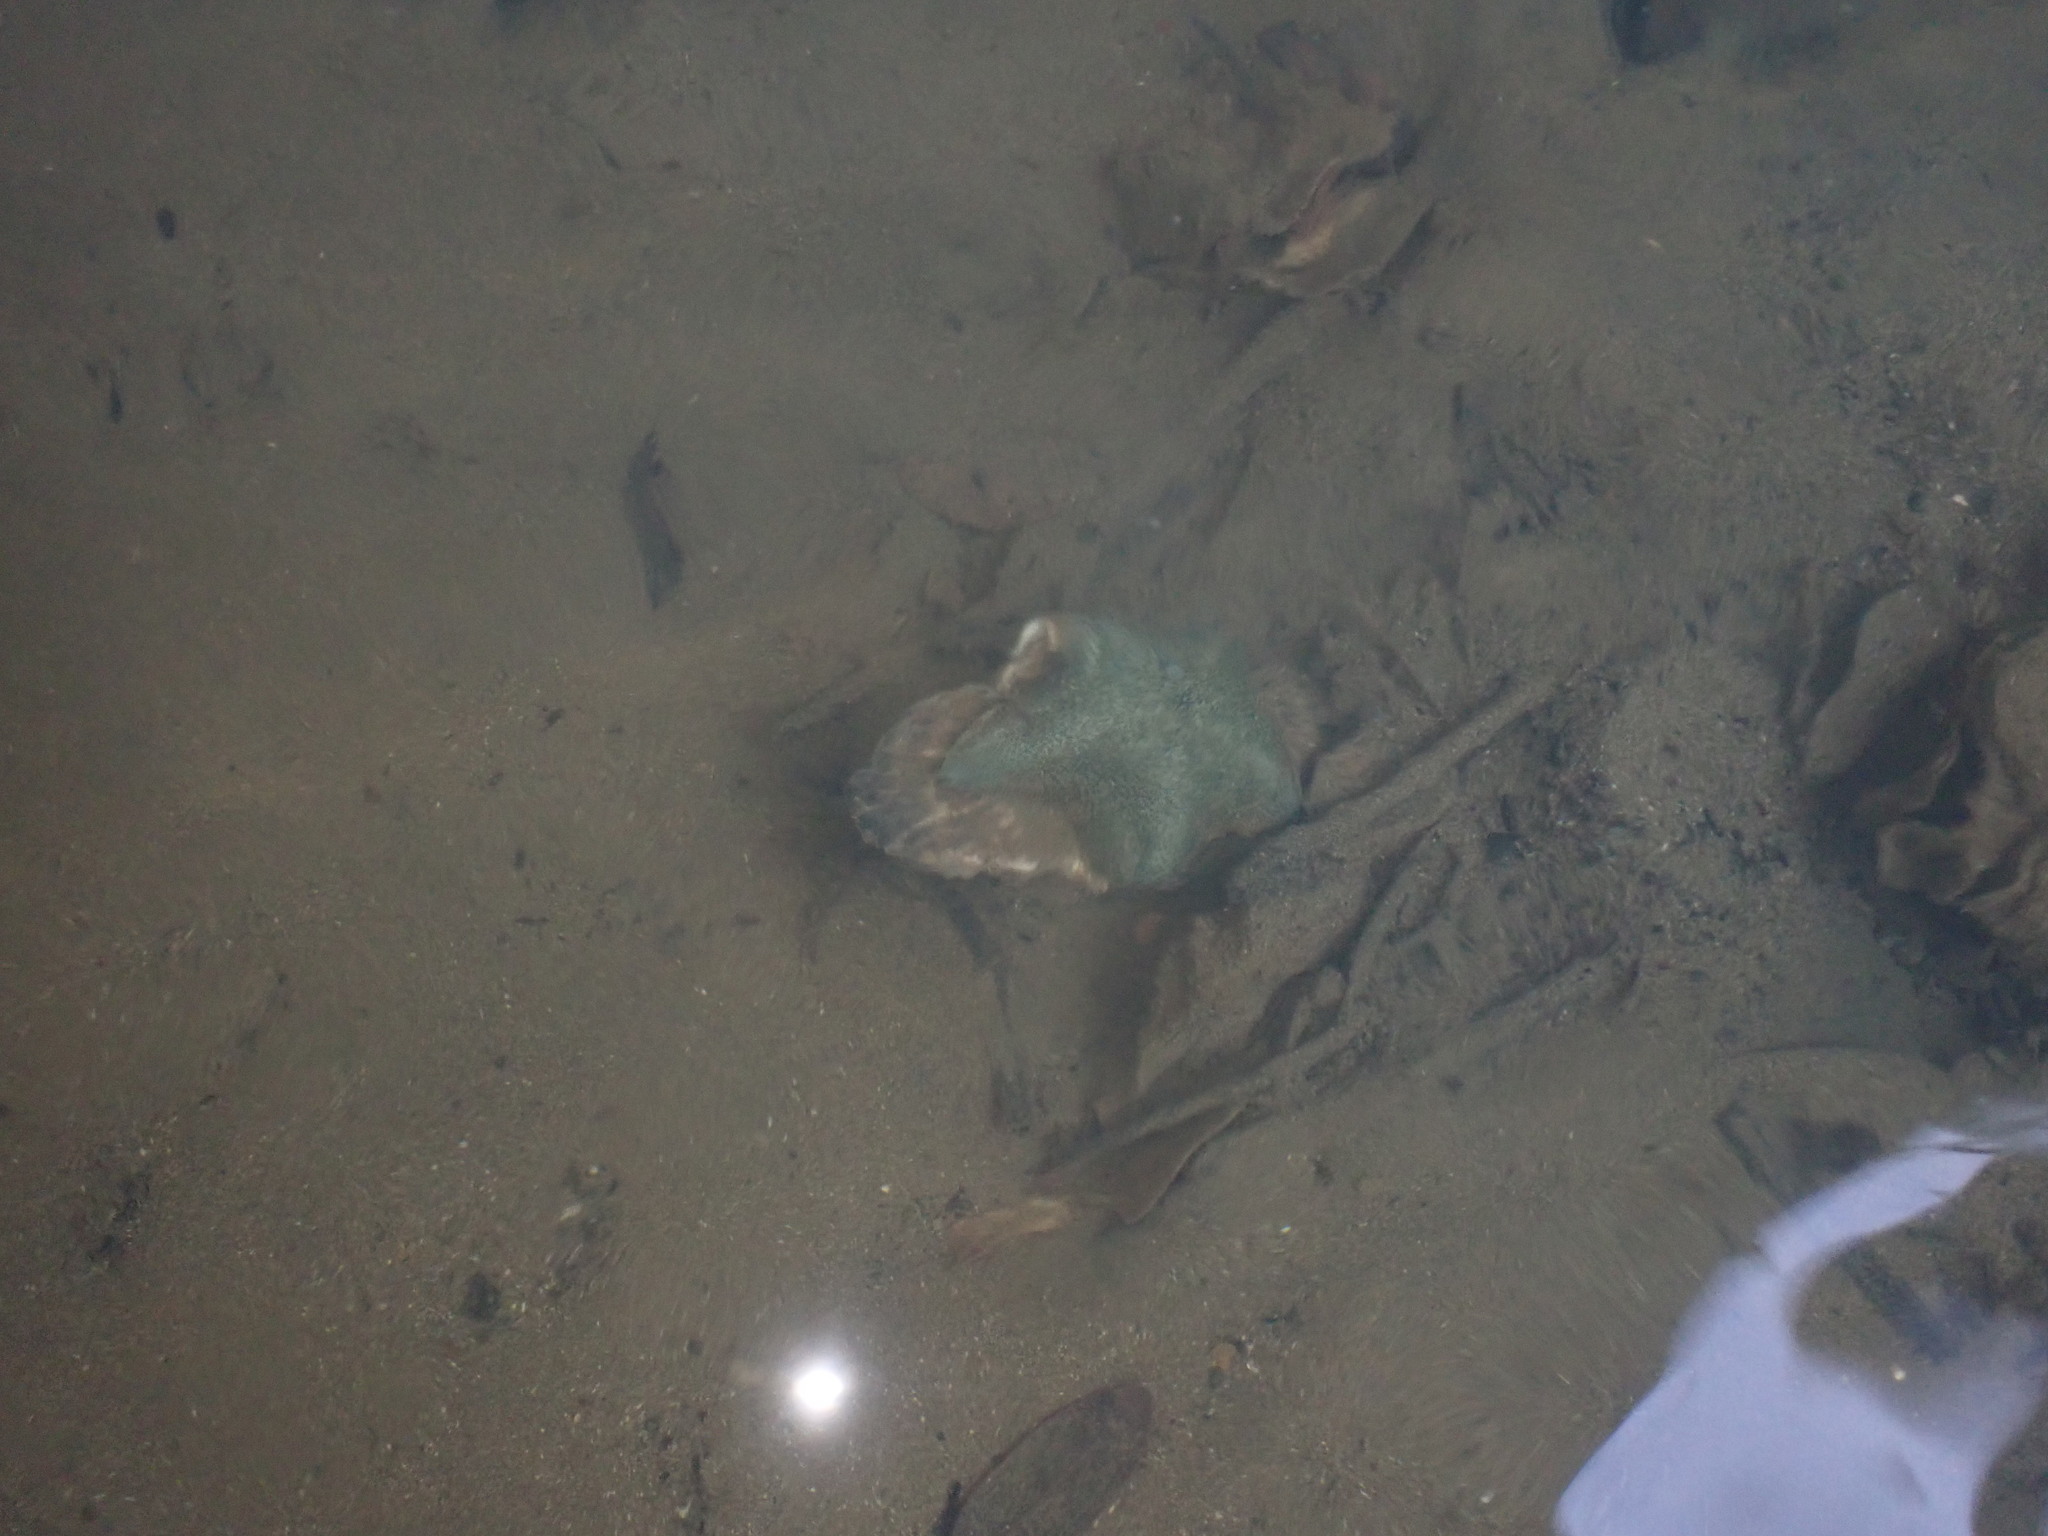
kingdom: Animalia
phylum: Echinodermata
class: Asteroidea
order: Valvatida
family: Asterinidae
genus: Patiriella
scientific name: Patiriella regularis
